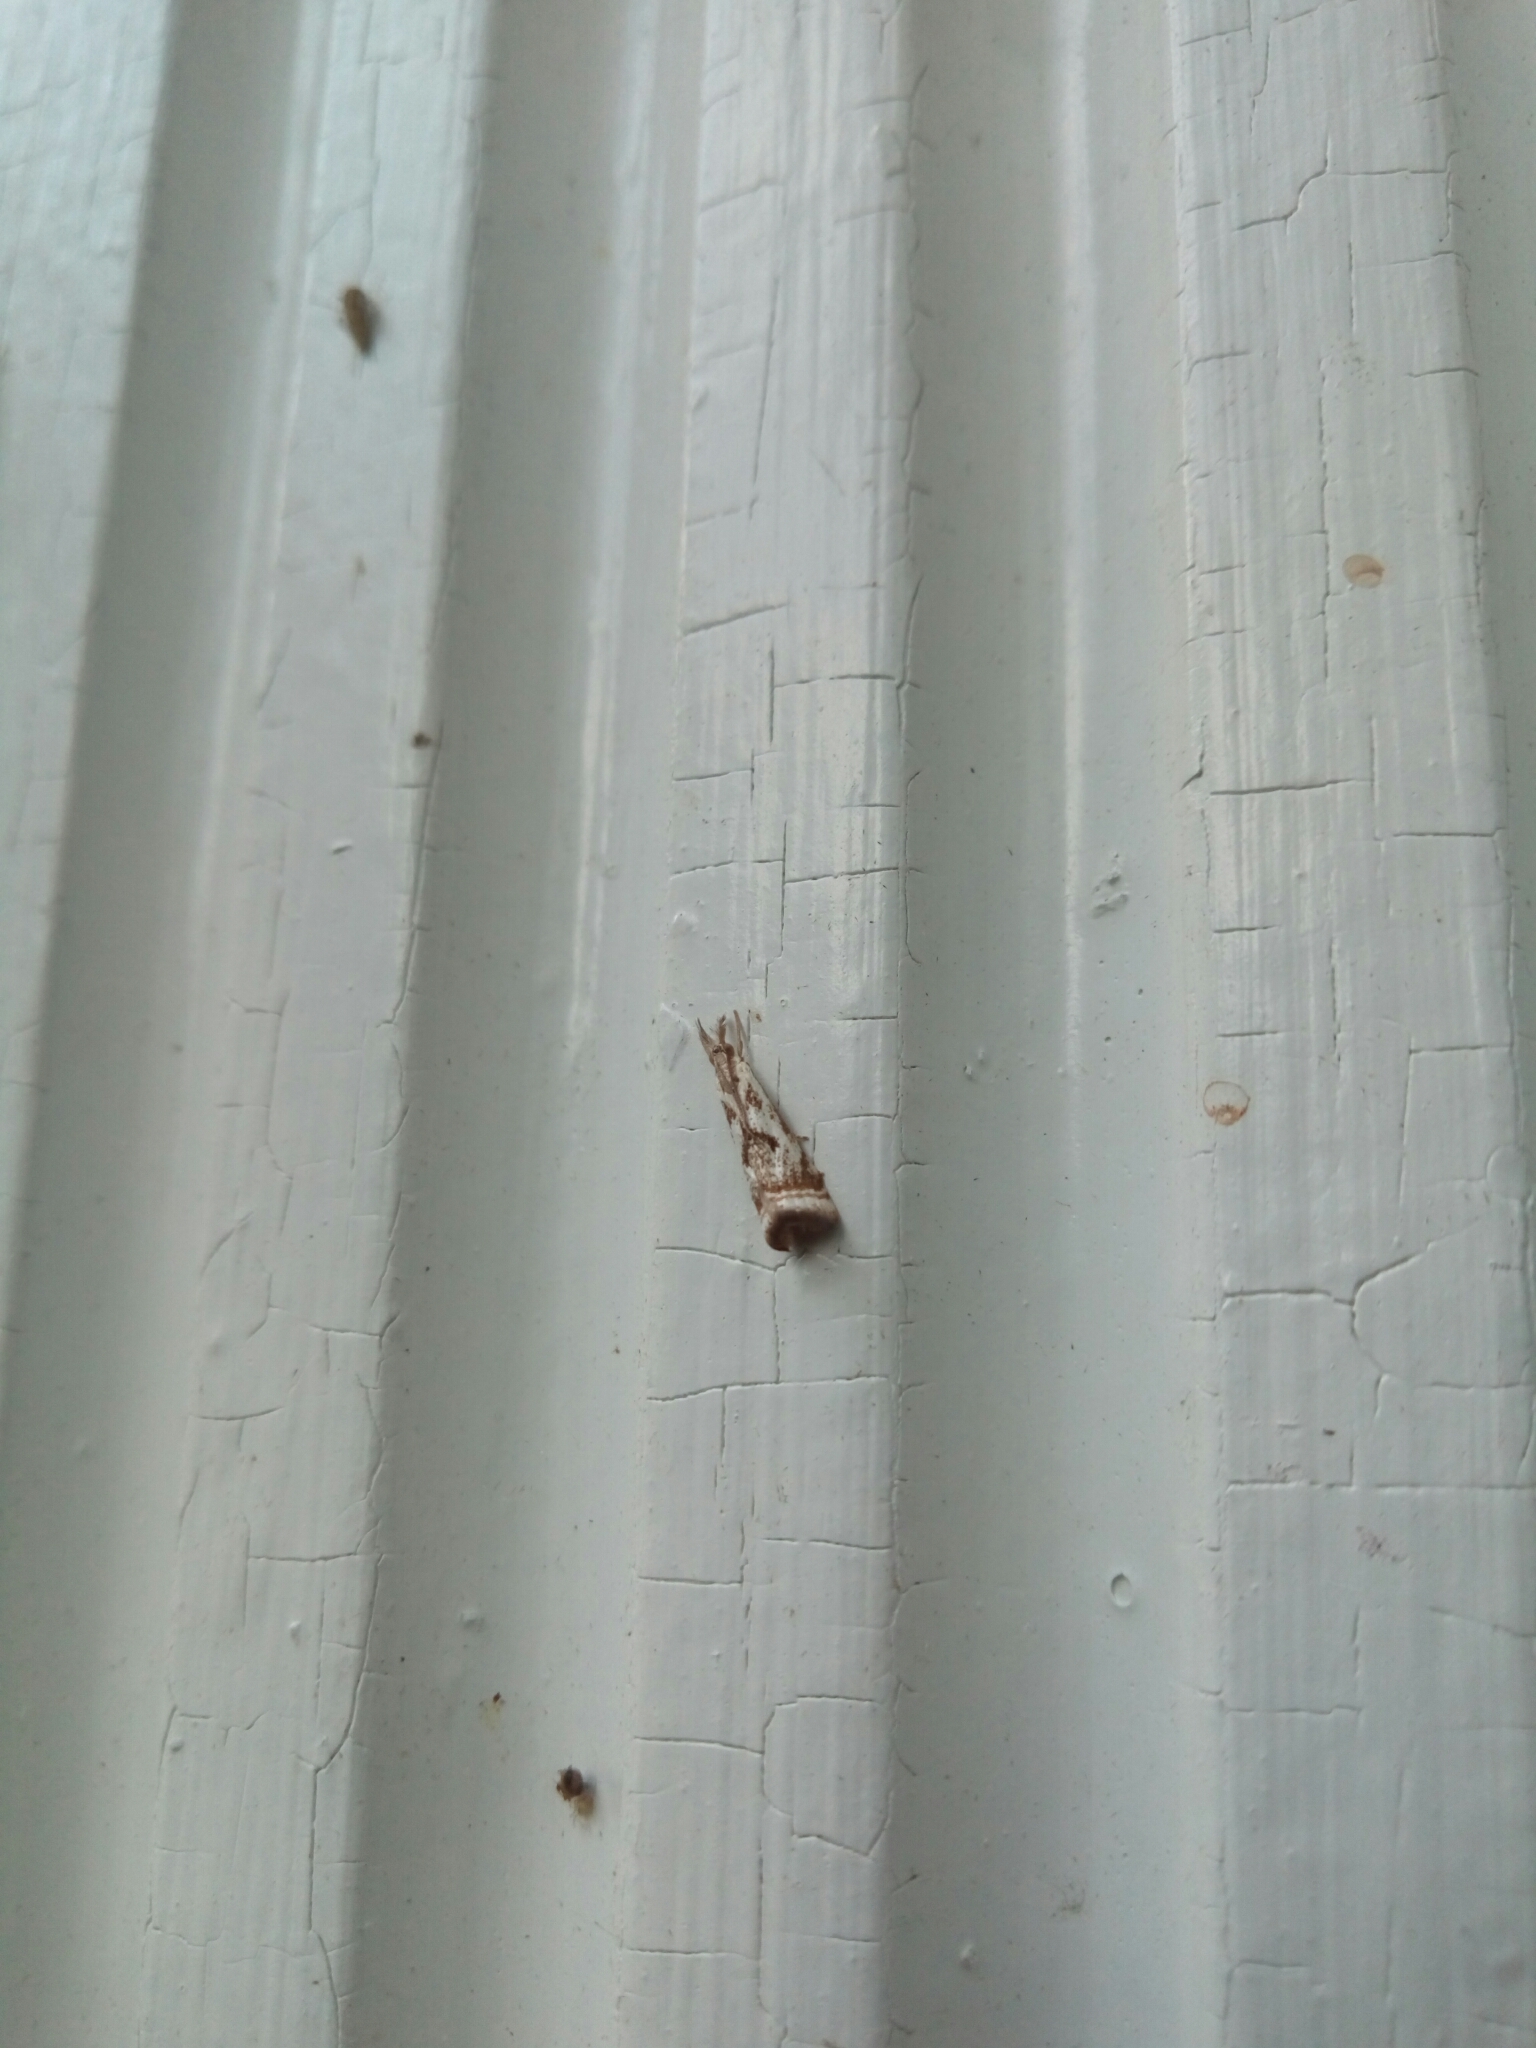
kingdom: Animalia
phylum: Arthropoda
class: Insecta
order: Lepidoptera
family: Crambidae
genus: Microcrambus
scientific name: Microcrambus elegans
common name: Elegant grass-veneer
